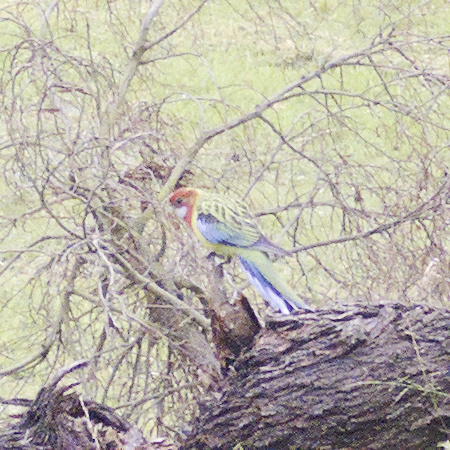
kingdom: Animalia
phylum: Chordata
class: Aves
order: Psittaciformes
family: Psittacidae
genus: Platycercus
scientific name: Platycercus eximius
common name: Eastern rosella
